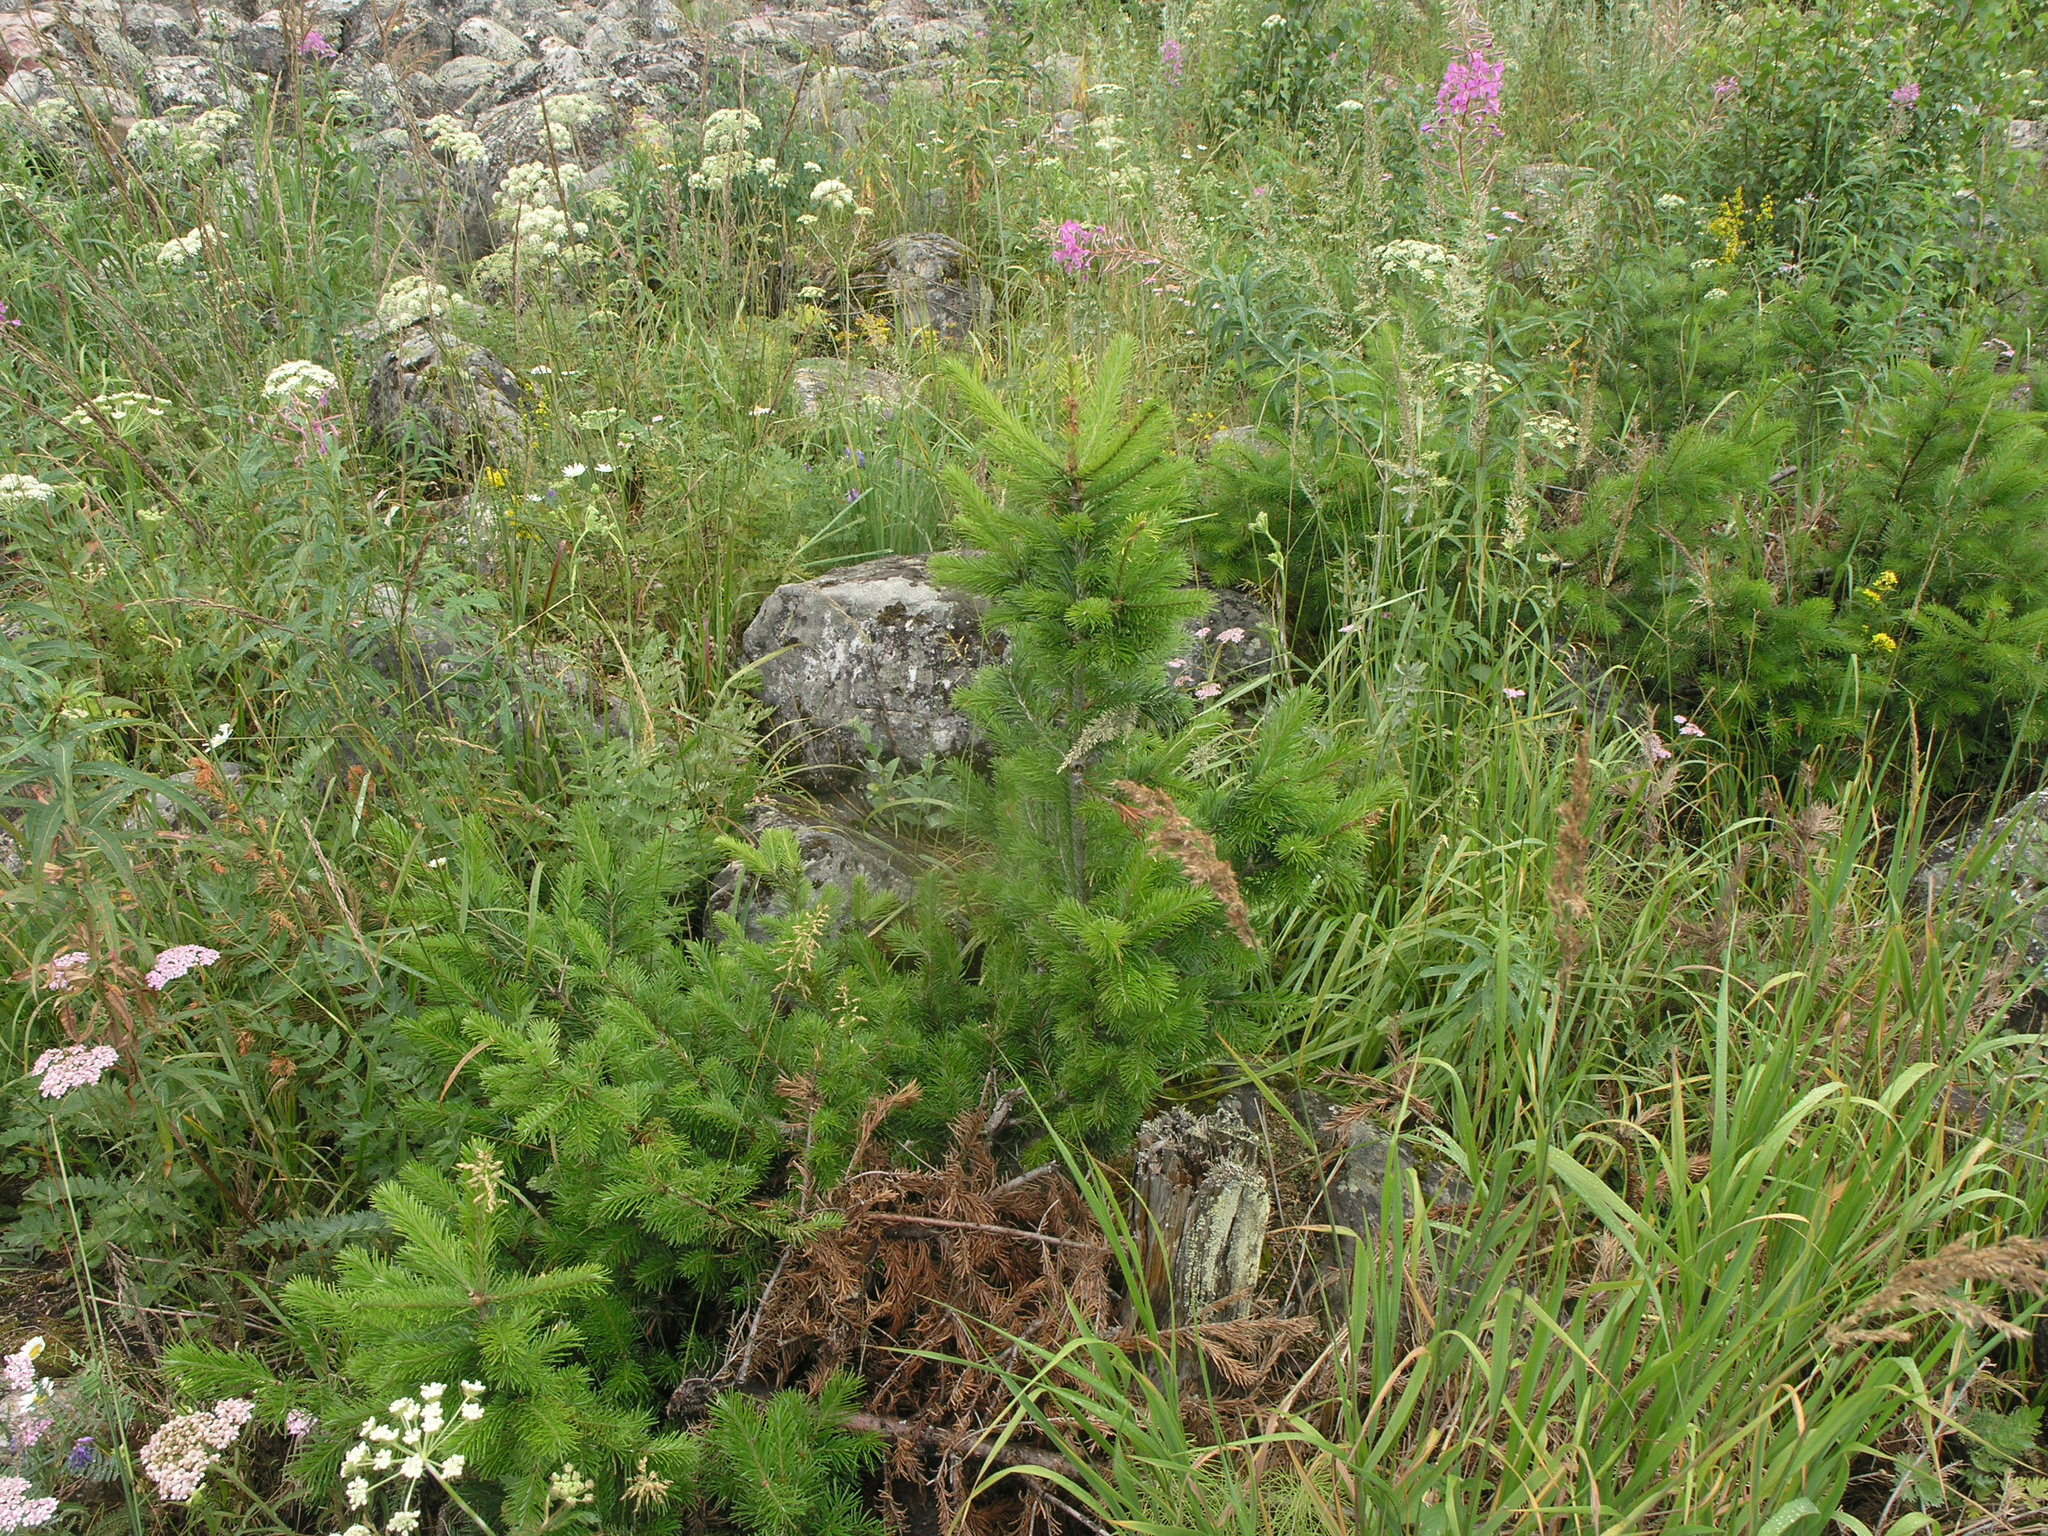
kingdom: Plantae
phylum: Tracheophyta
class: Pinopsida
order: Pinales
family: Pinaceae
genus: Abies
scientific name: Abies sibirica
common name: Siberian fir
